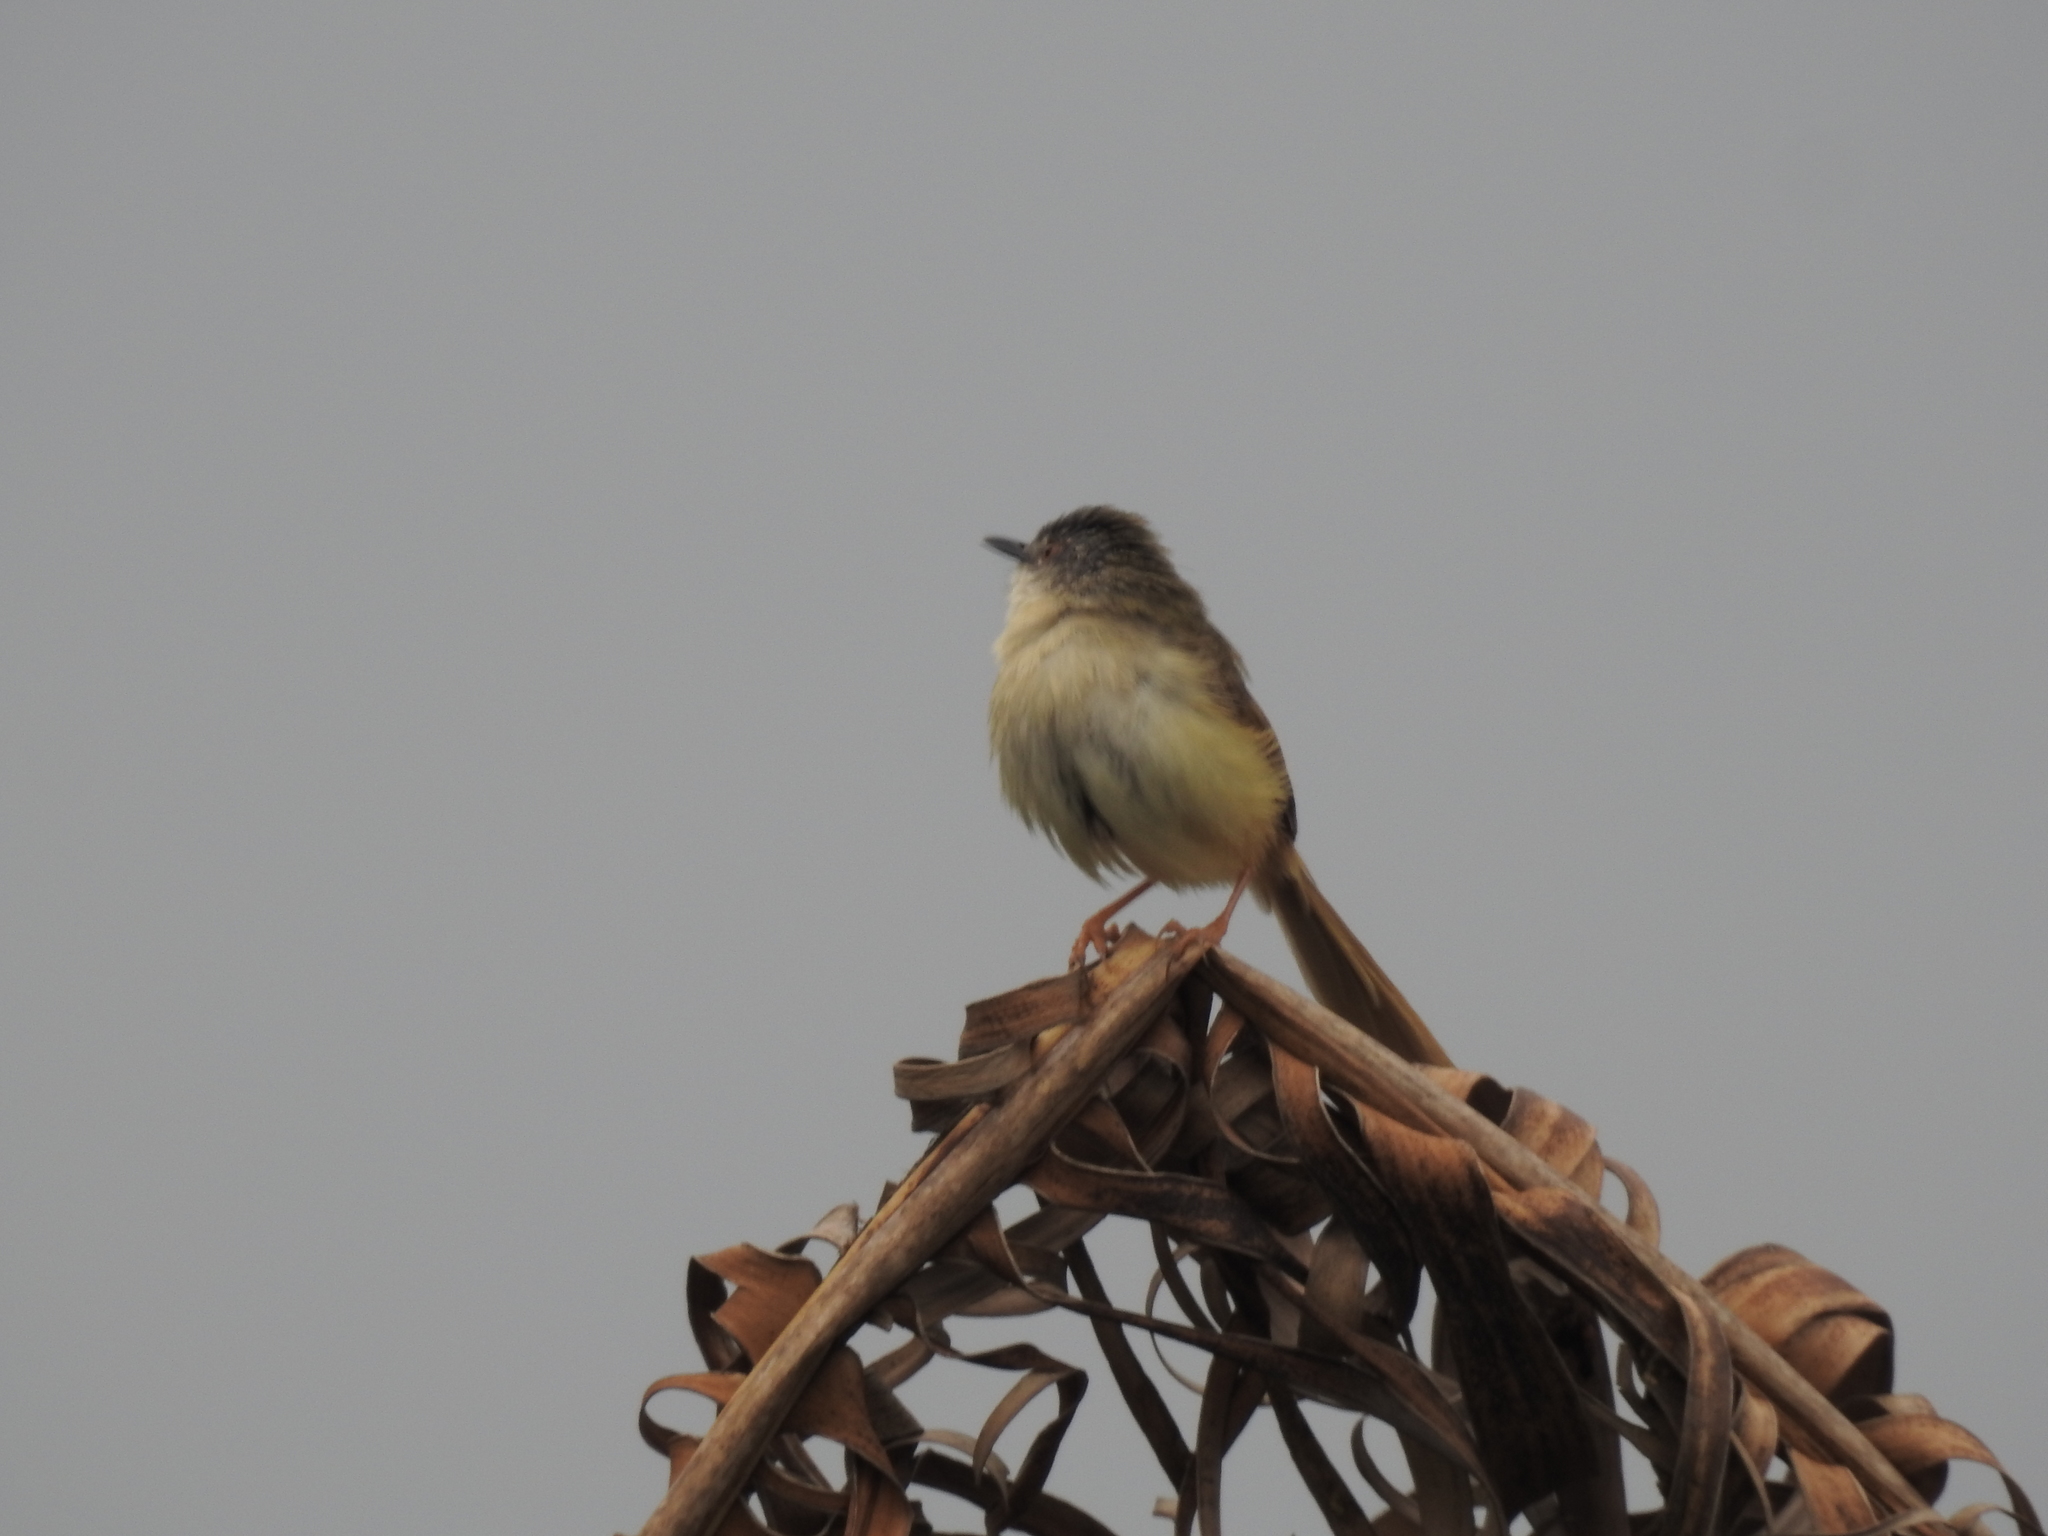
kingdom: Animalia
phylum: Chordata
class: Aves
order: Passeriformes
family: Cisticolidae
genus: Prinia
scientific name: Prinia flaviventris
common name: Yellow-bellied prinia
